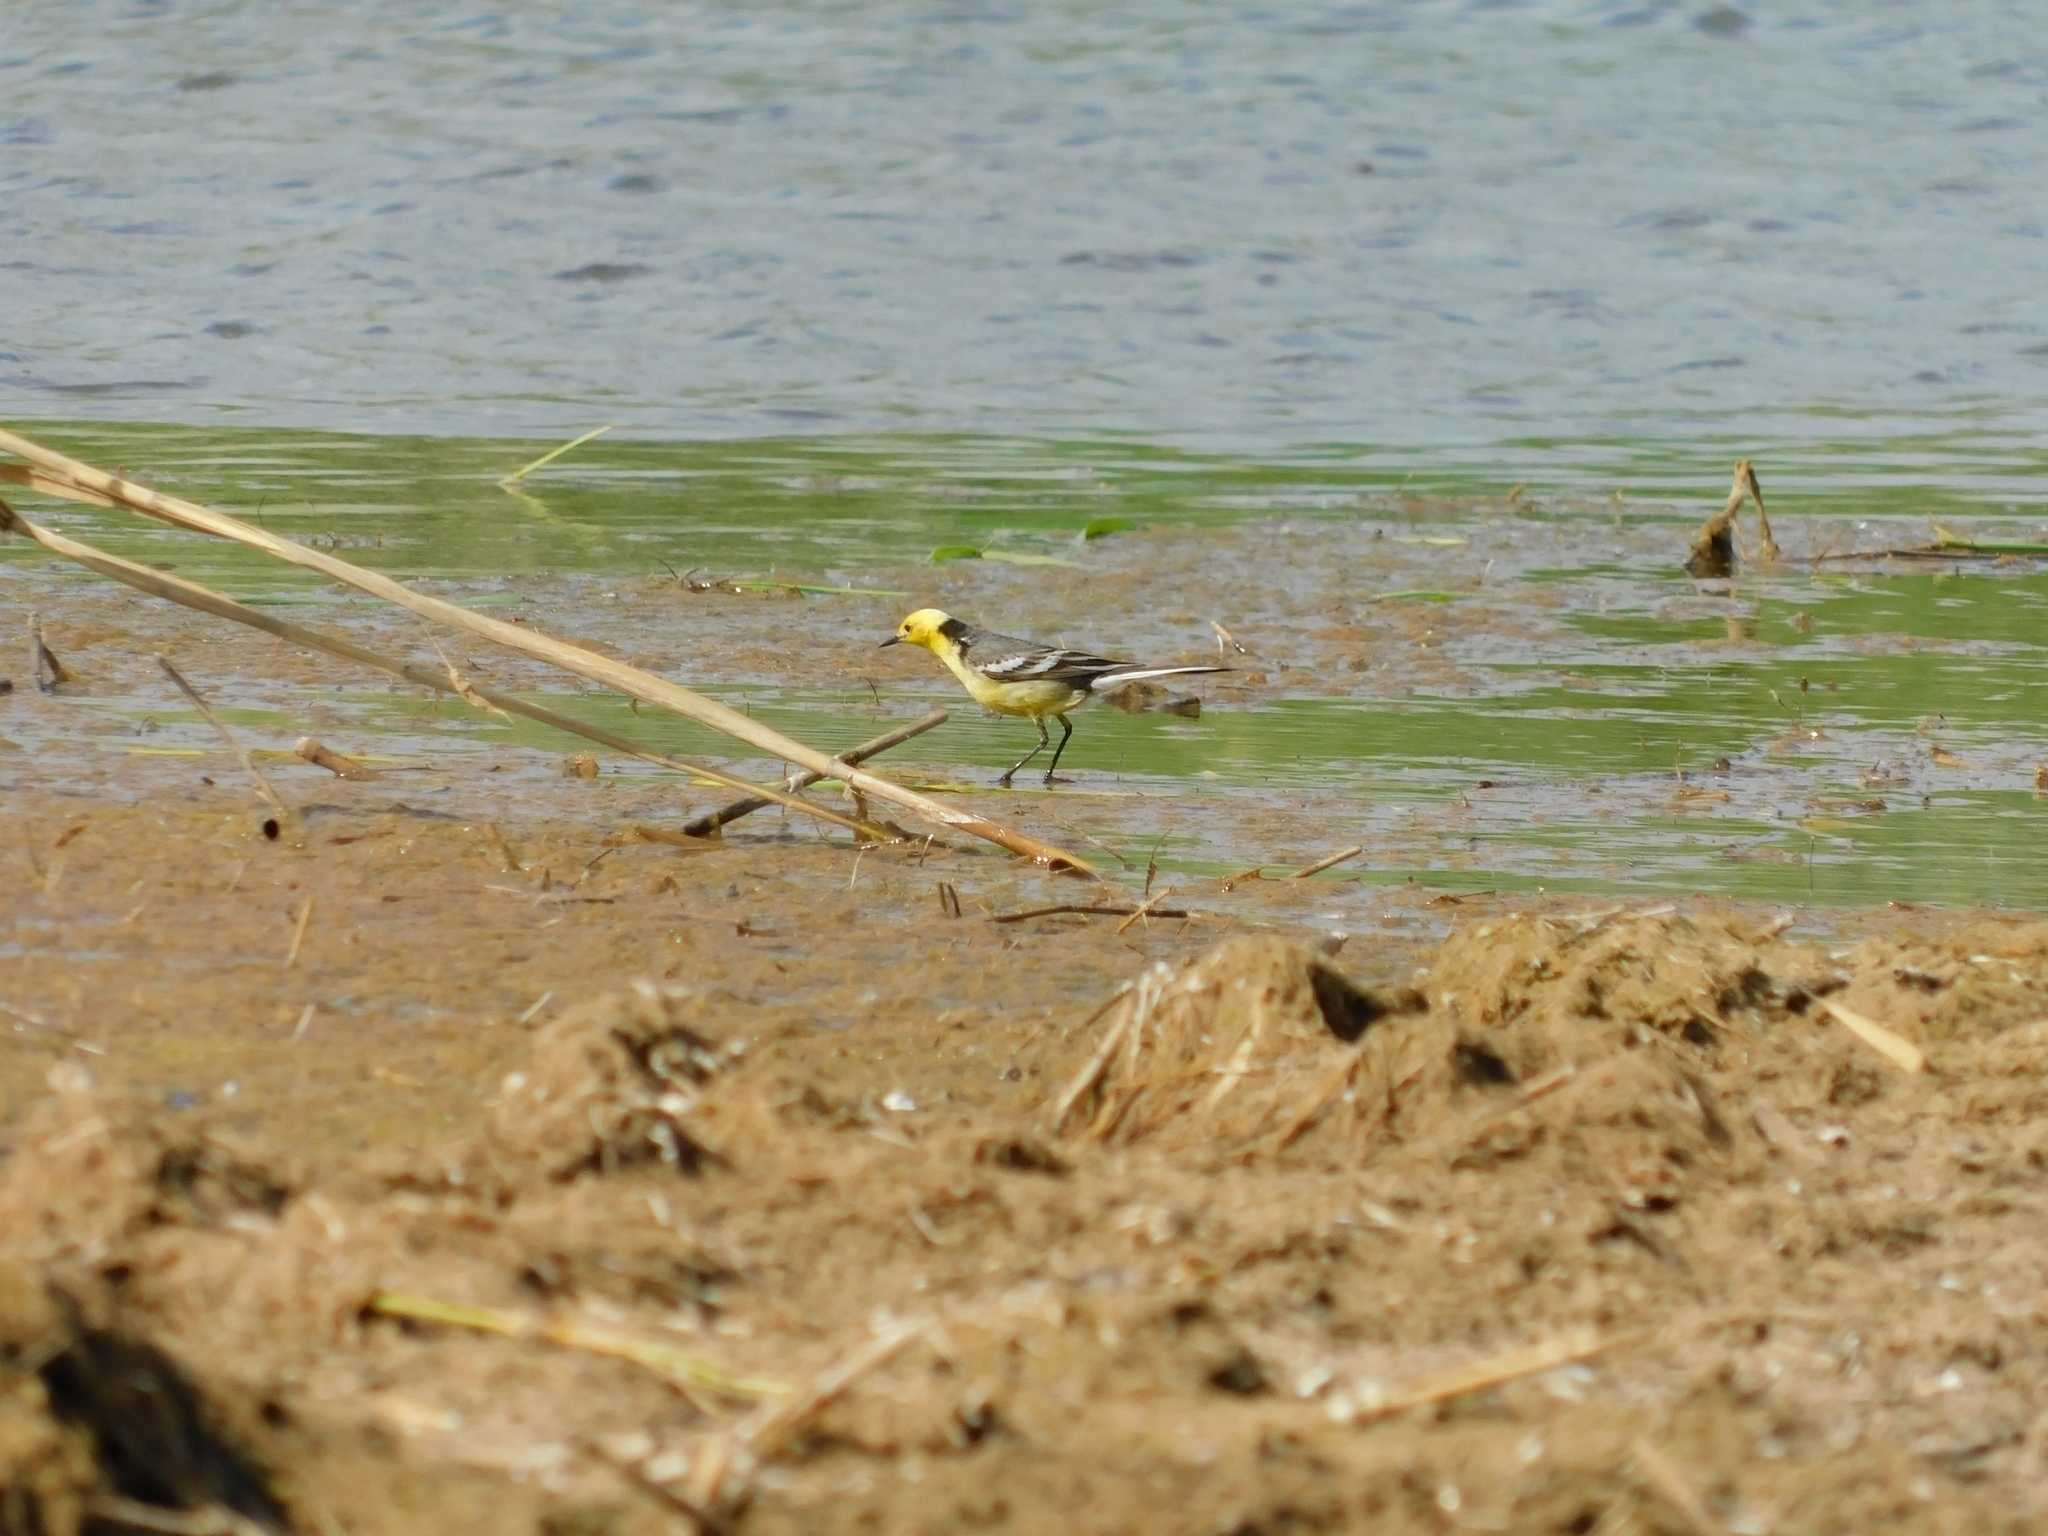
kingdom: Animalia
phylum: Chordata
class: Aves
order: Passeriformes
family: Motacillidae
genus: Motacilla
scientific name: Motacilla citreola
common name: Citrine wagtail
